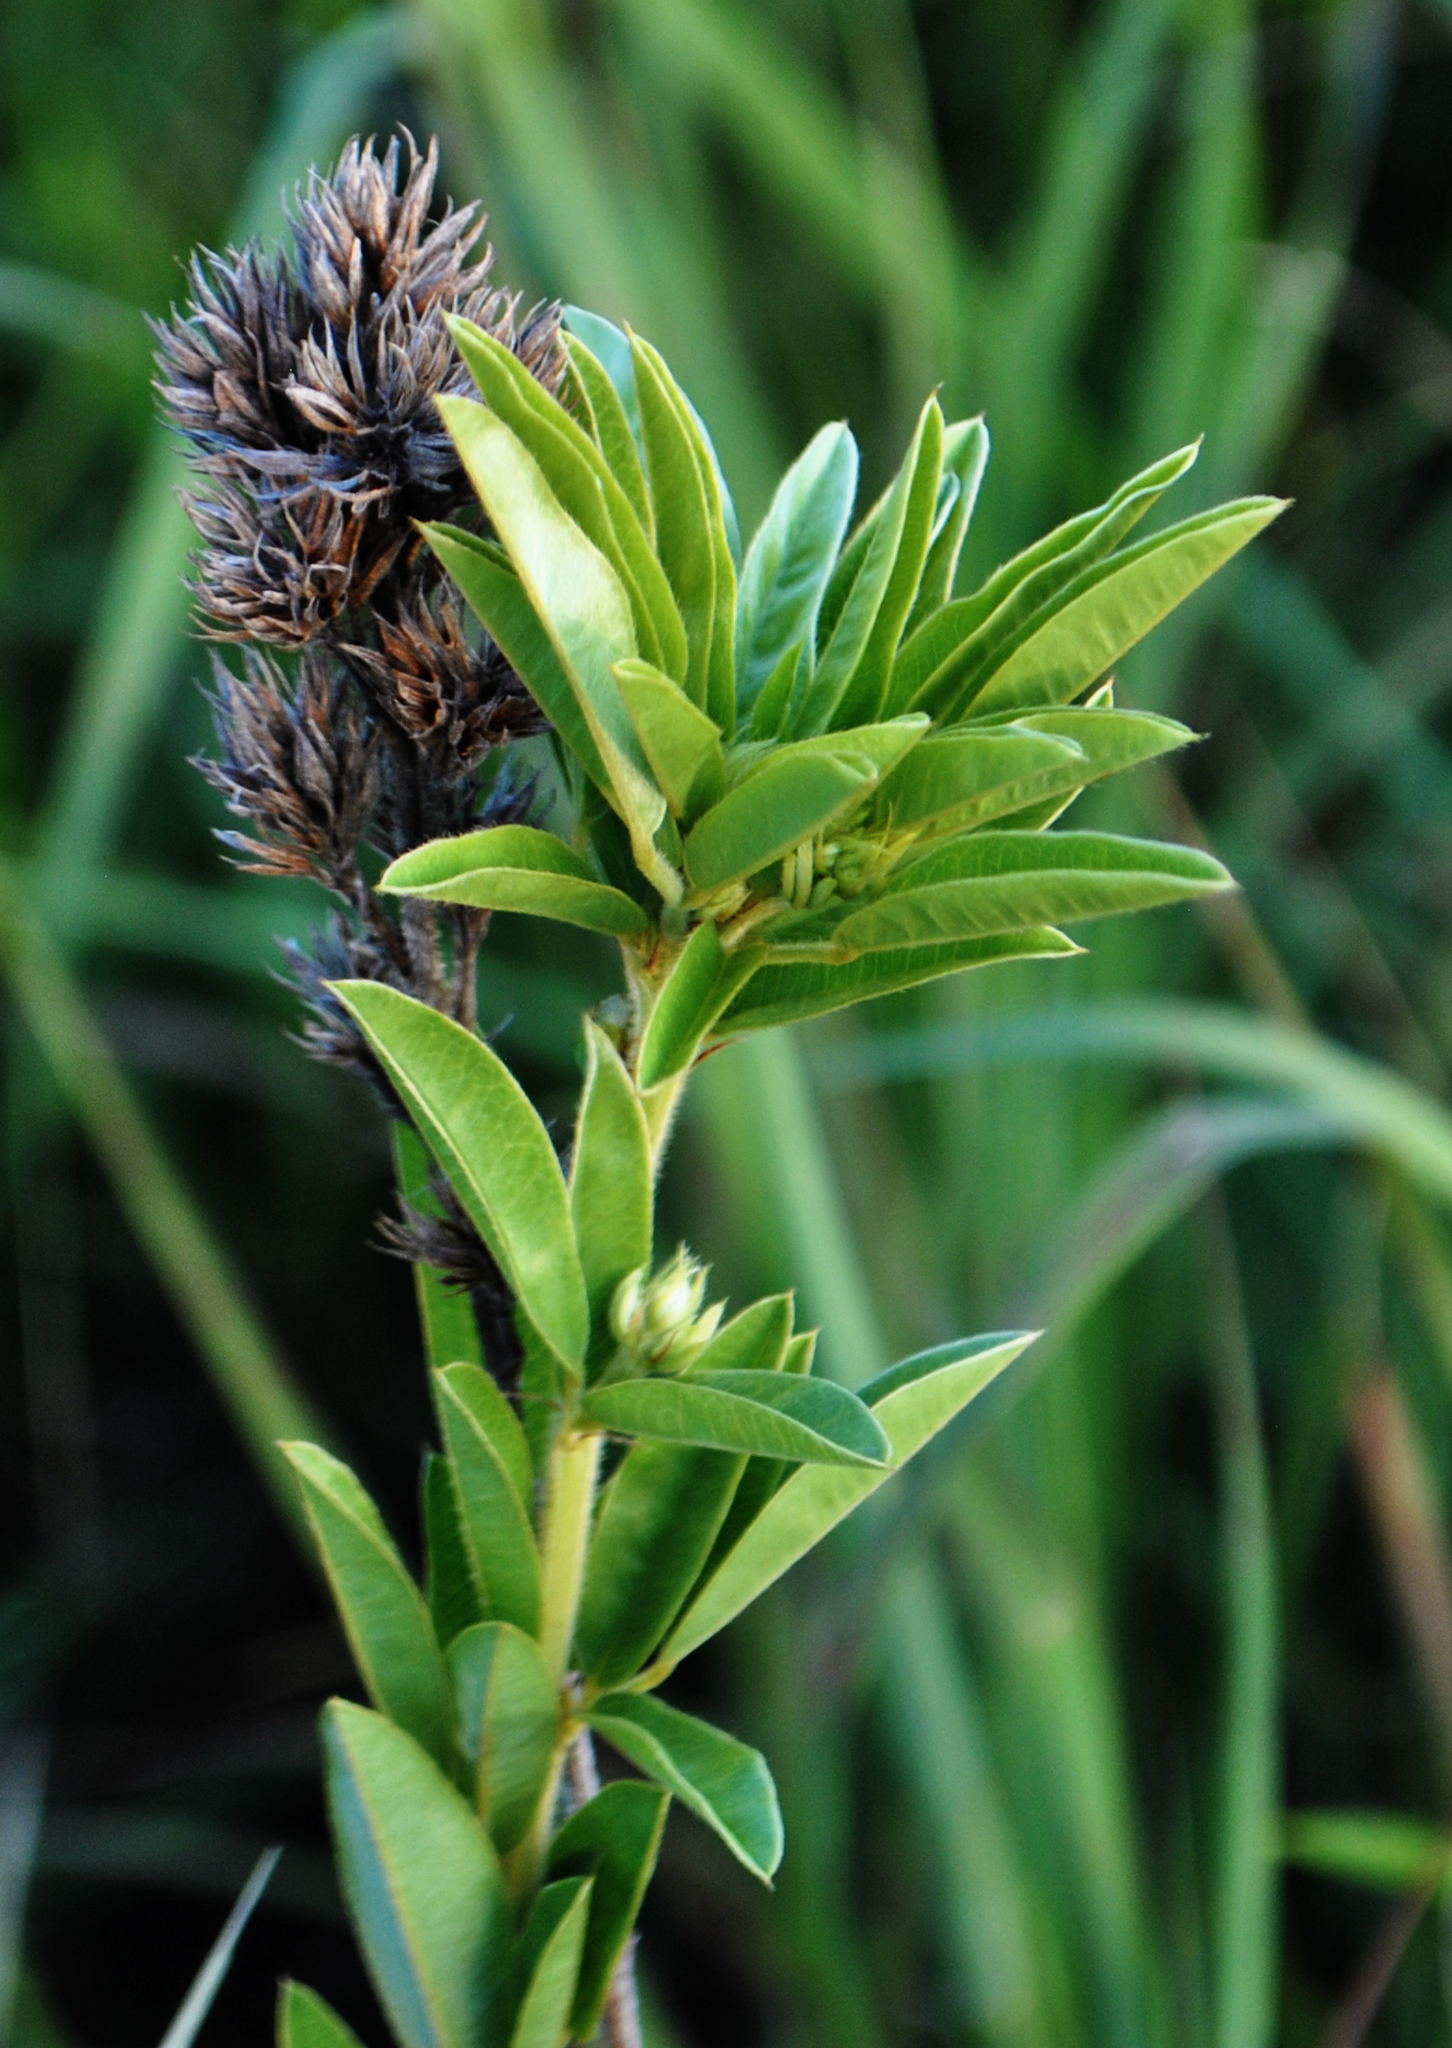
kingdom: Plantae
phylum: Tracheophyta
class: Magnoliopsida
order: Fabales
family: Fabaceae
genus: Lespedeza
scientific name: Lespedeza capitata
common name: Dusty clover
